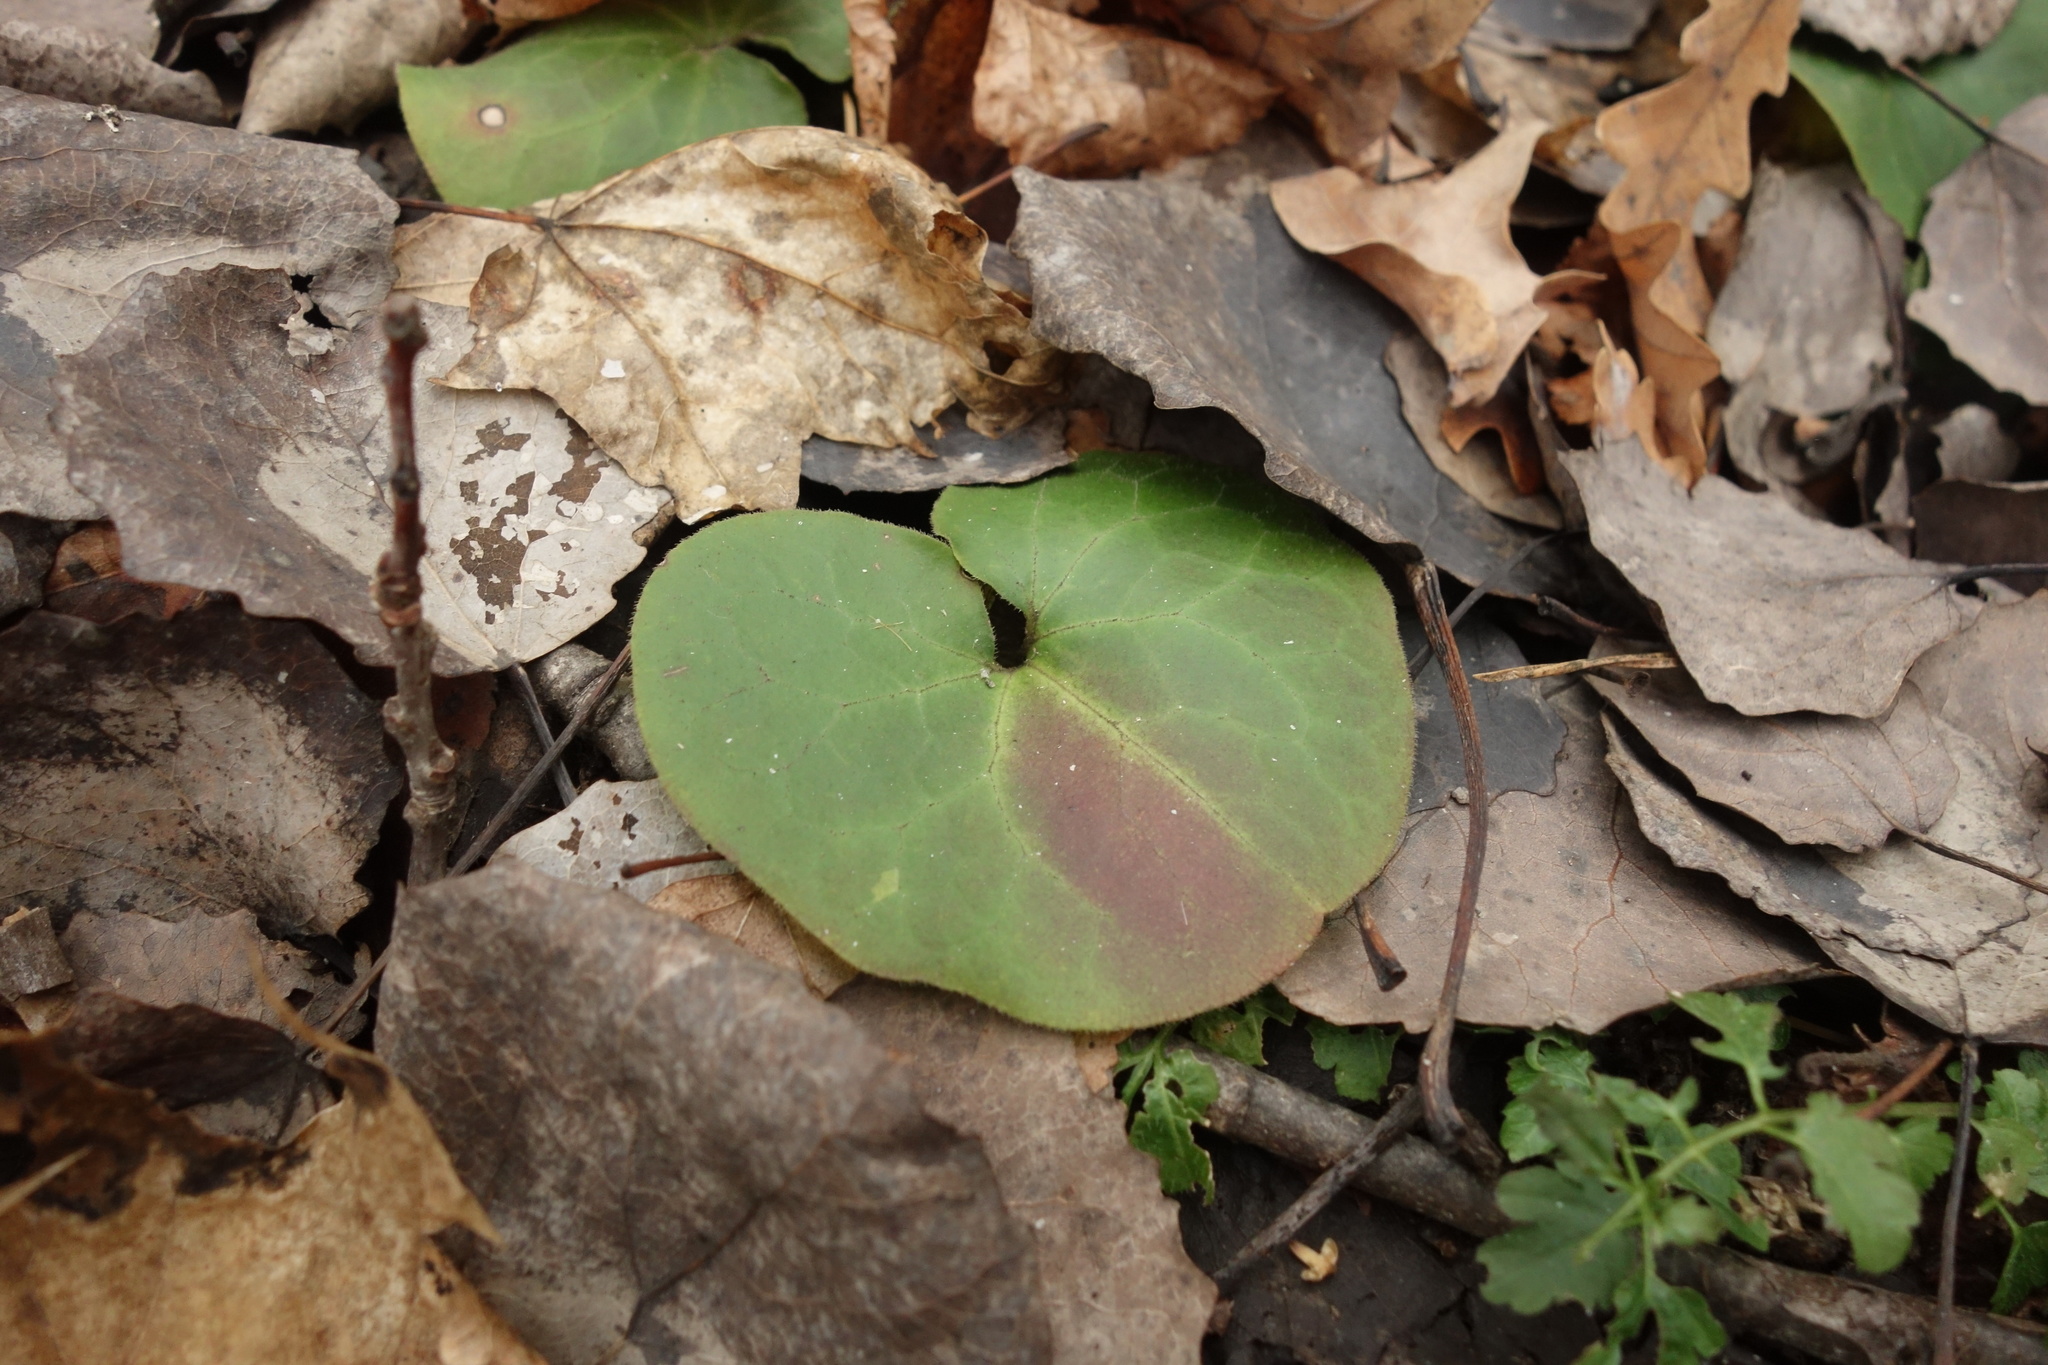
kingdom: Plantae
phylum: Tracheophyta
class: Magnoliopsida
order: Piperales
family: Aristolochiaceae
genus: Asarum
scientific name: Asarum europaeum
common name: Asarabacca
